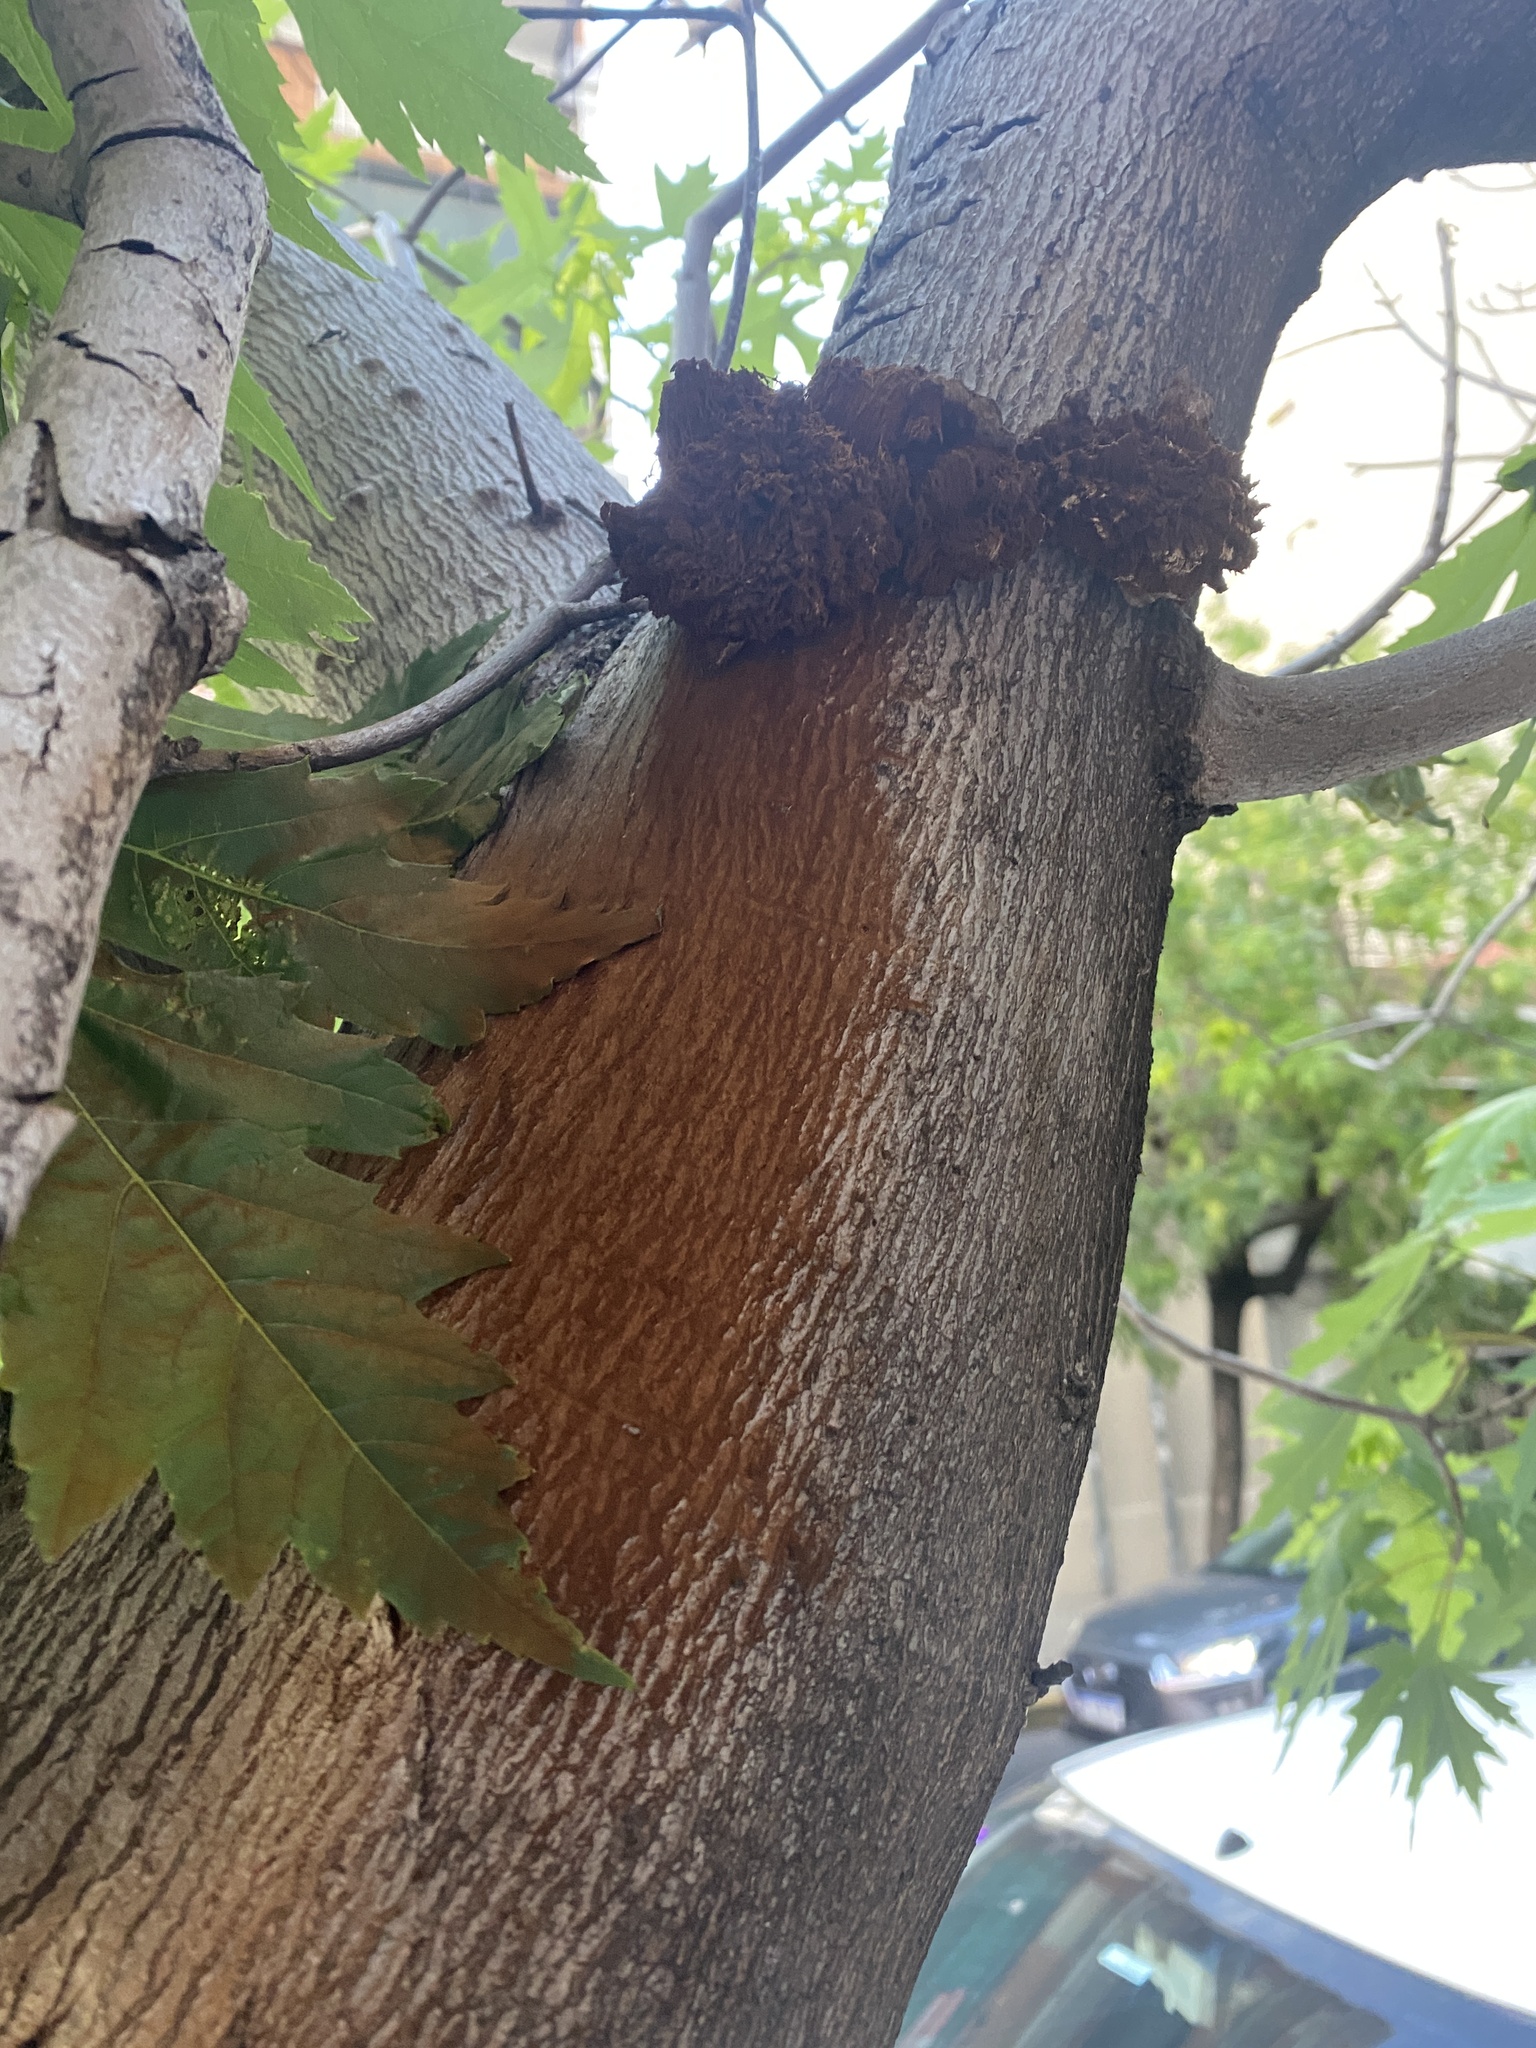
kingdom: Fungi
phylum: Basidiomycota
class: Agaricomycetes
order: Hymenochaetales
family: Hymenochaetaceae
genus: Inonotus
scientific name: Inonotus rickii
